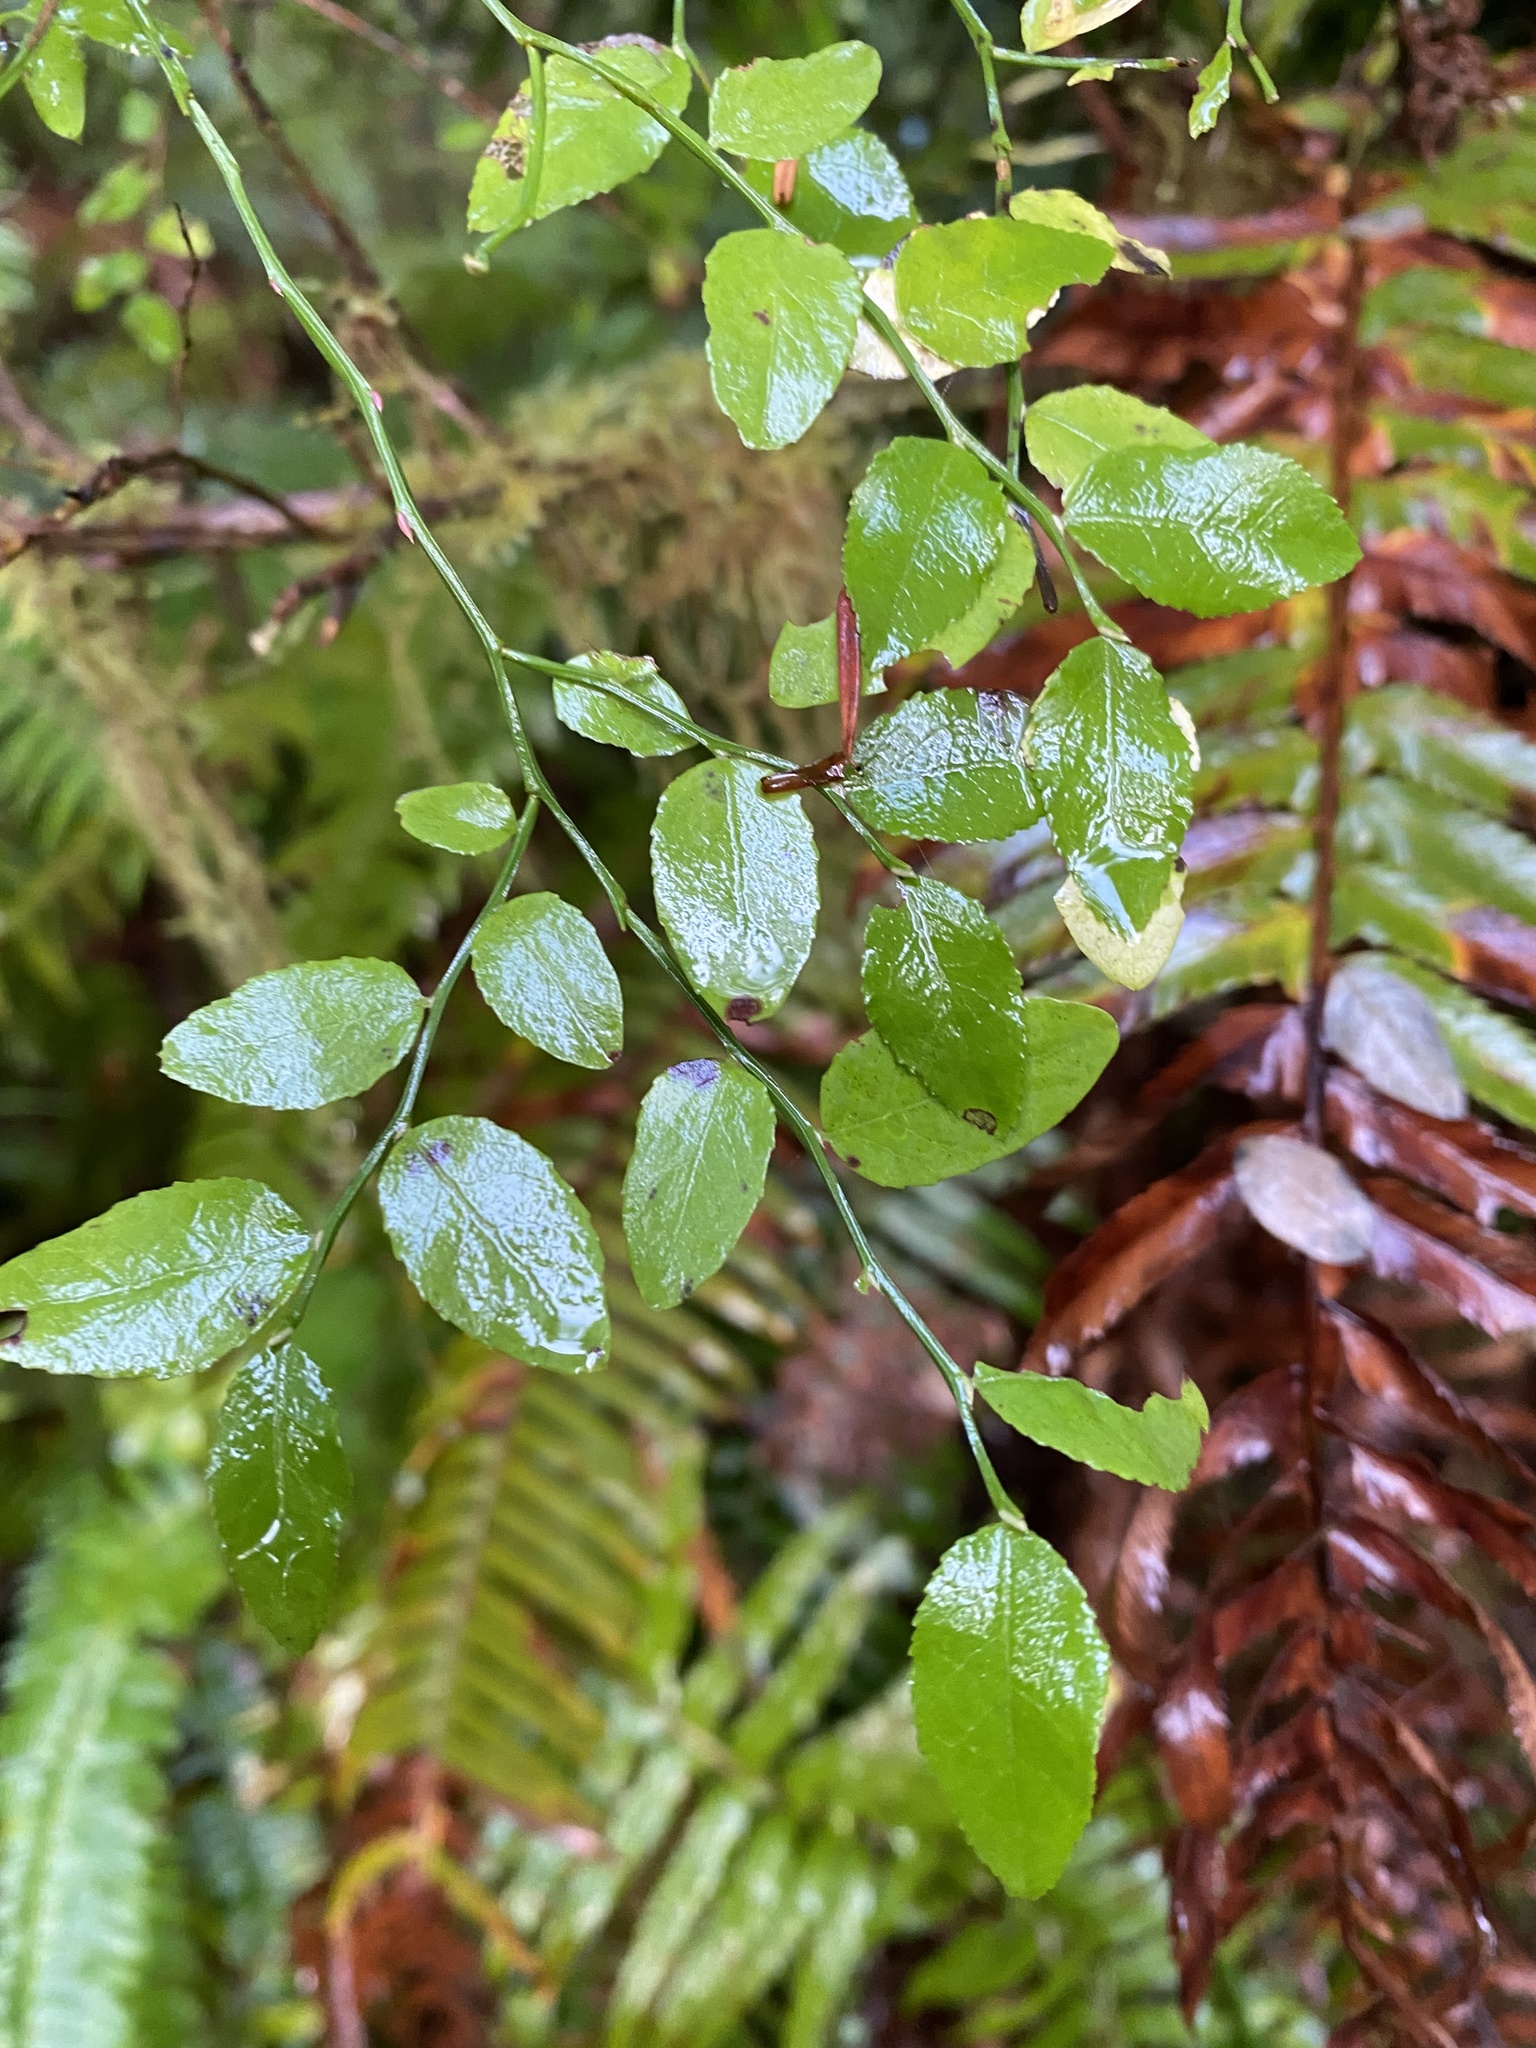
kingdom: Plantae
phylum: Tracheophyta
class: Magnoliopsida
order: Ericales
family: Ericaceae
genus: Vaccinium
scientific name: Vaccinium parvifolium
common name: Red-huckleberry
